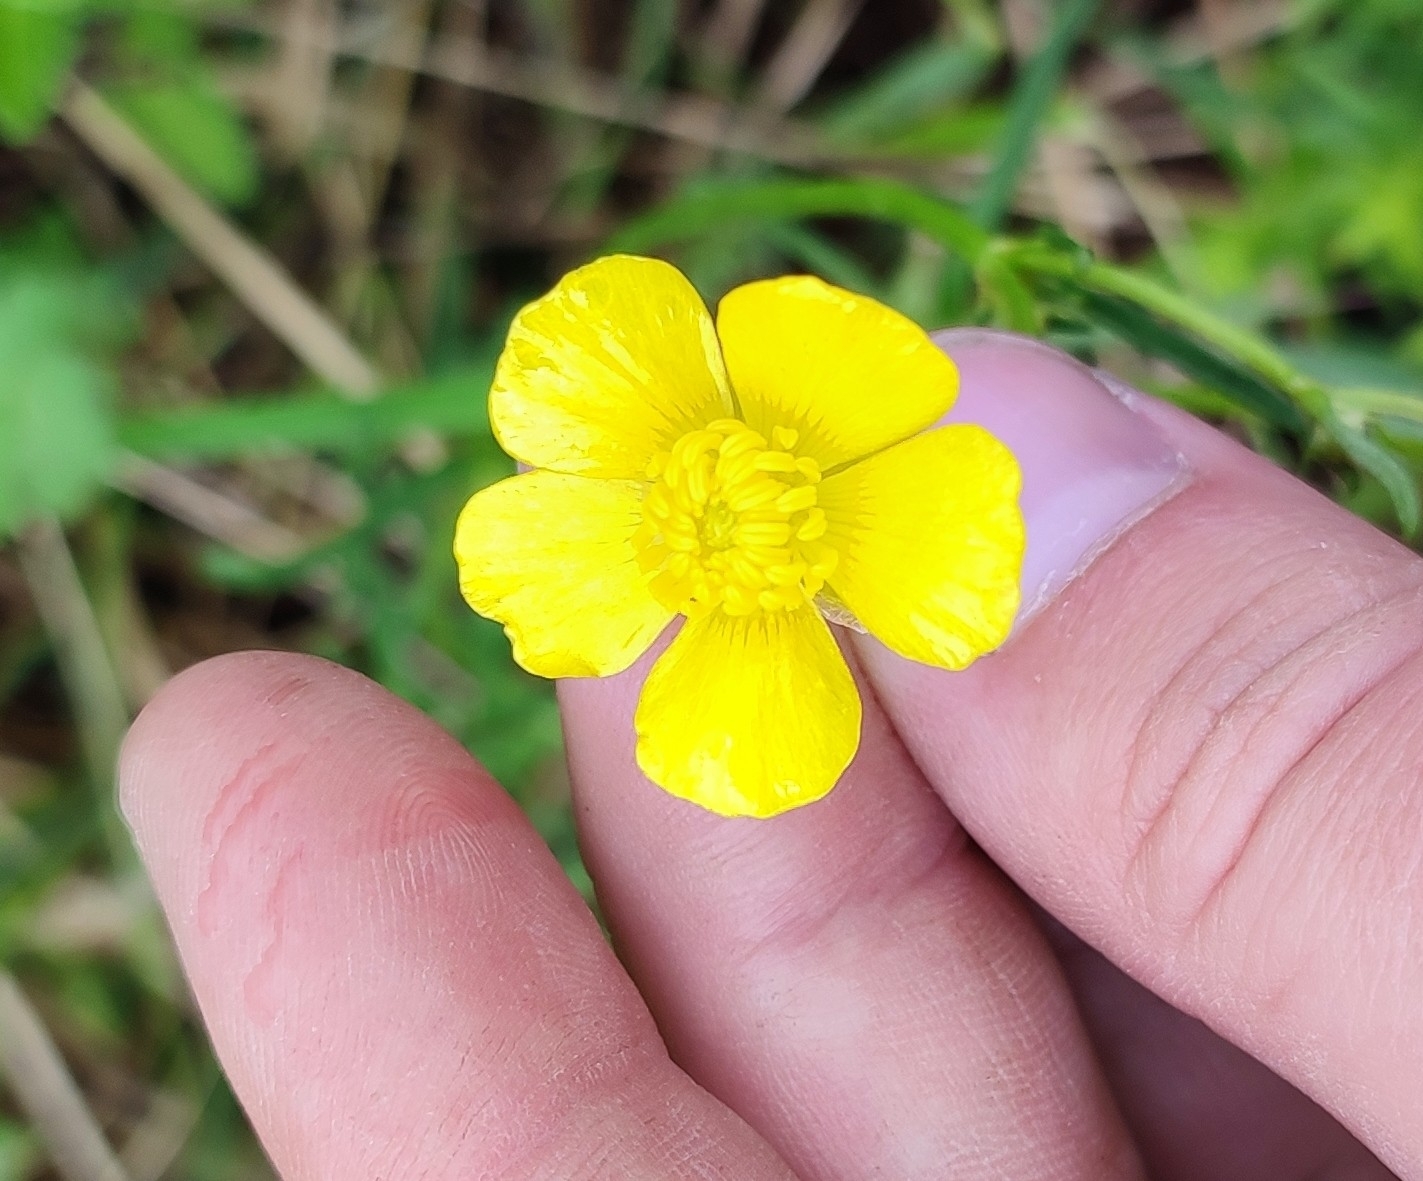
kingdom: Plantae
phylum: Tracheophyta
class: Magnoliopsida
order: Ranunculales
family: Ranunculaceae
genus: Ranunculus
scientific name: Ranunculus polyanthemos
